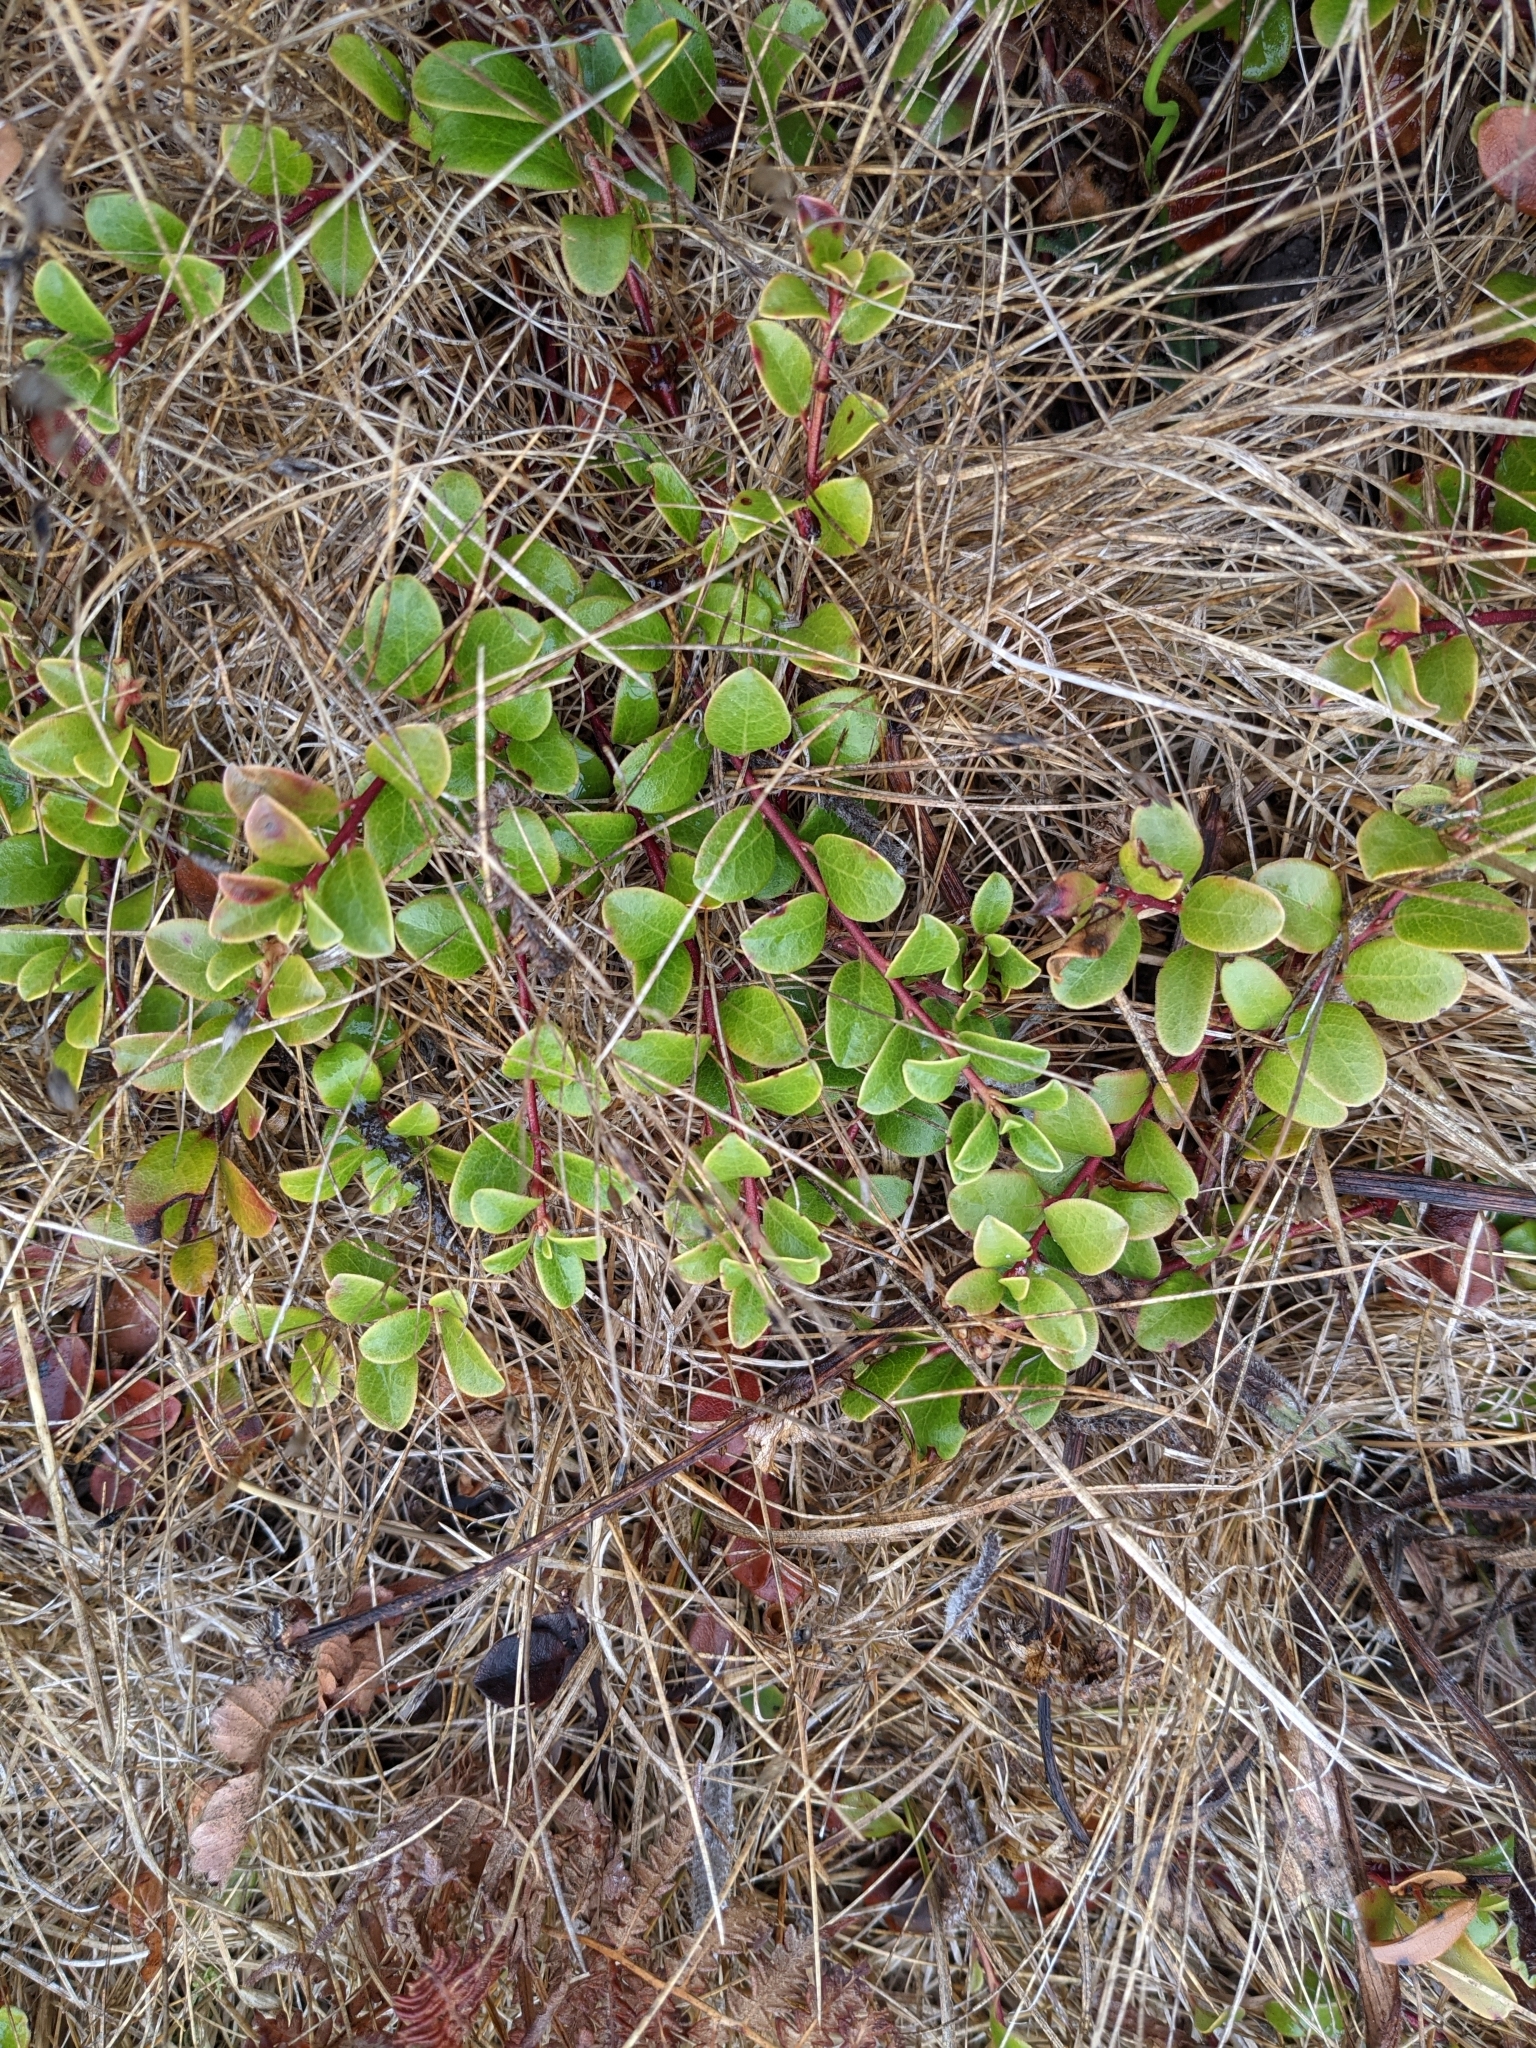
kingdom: Plantae
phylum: Tracheophyta
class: Magnoliopsida
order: Ericales
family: Ericaceae
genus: Arctostaphylos
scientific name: Arctostaphylos uva-ursi
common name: Bearberry
